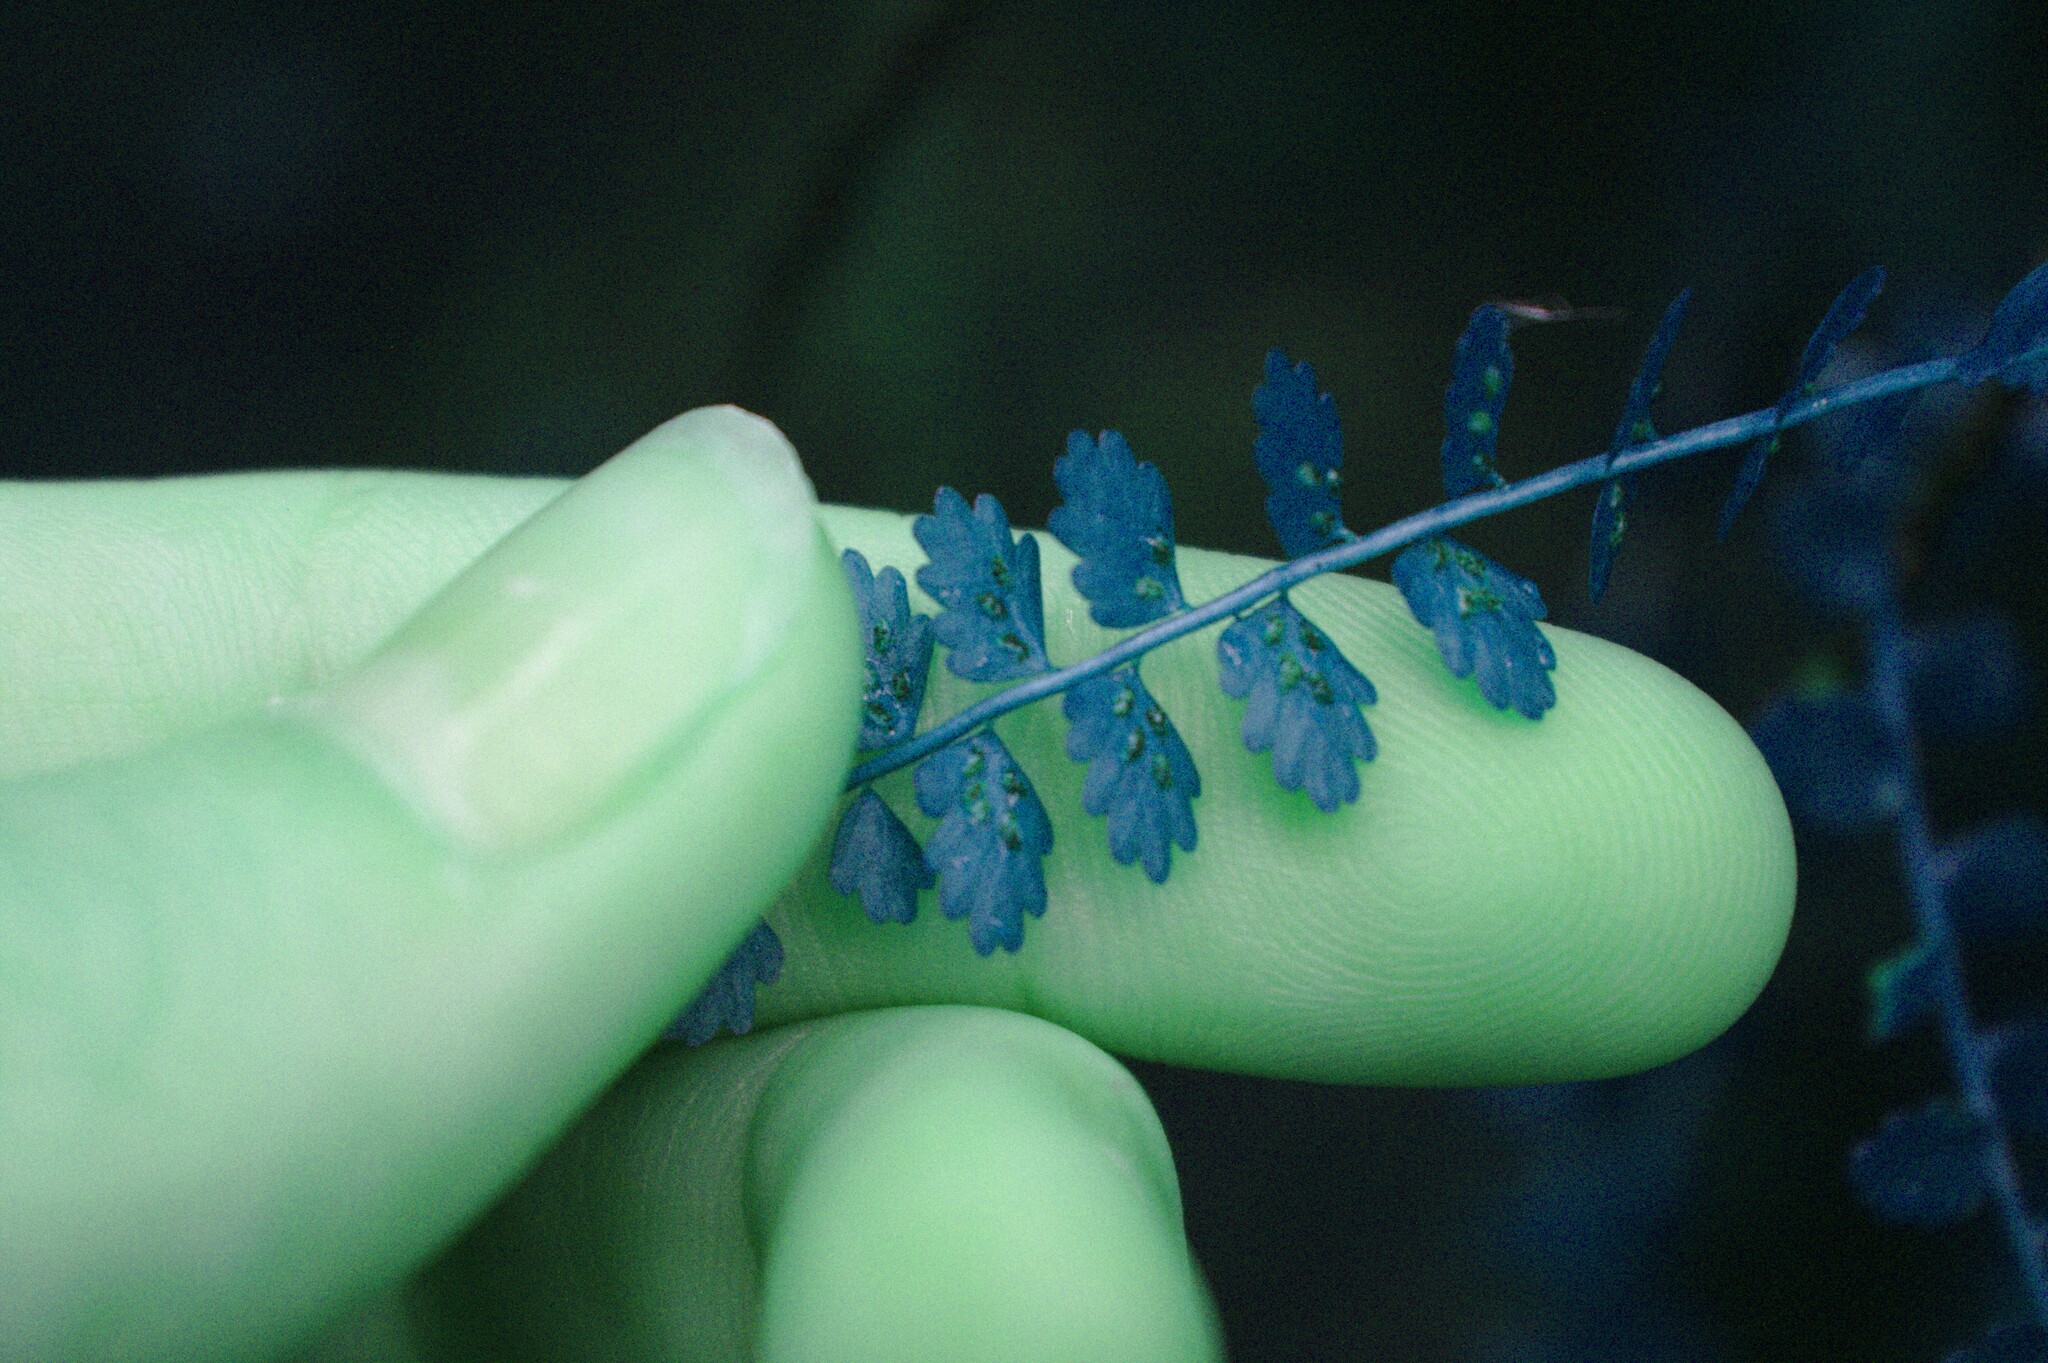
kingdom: Plantae
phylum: Tracheophyta
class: Polypodiopsida
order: Polypodiales
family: Aspleniaceae
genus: Asplenium
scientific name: Asplenium viride
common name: Green spleenwort
